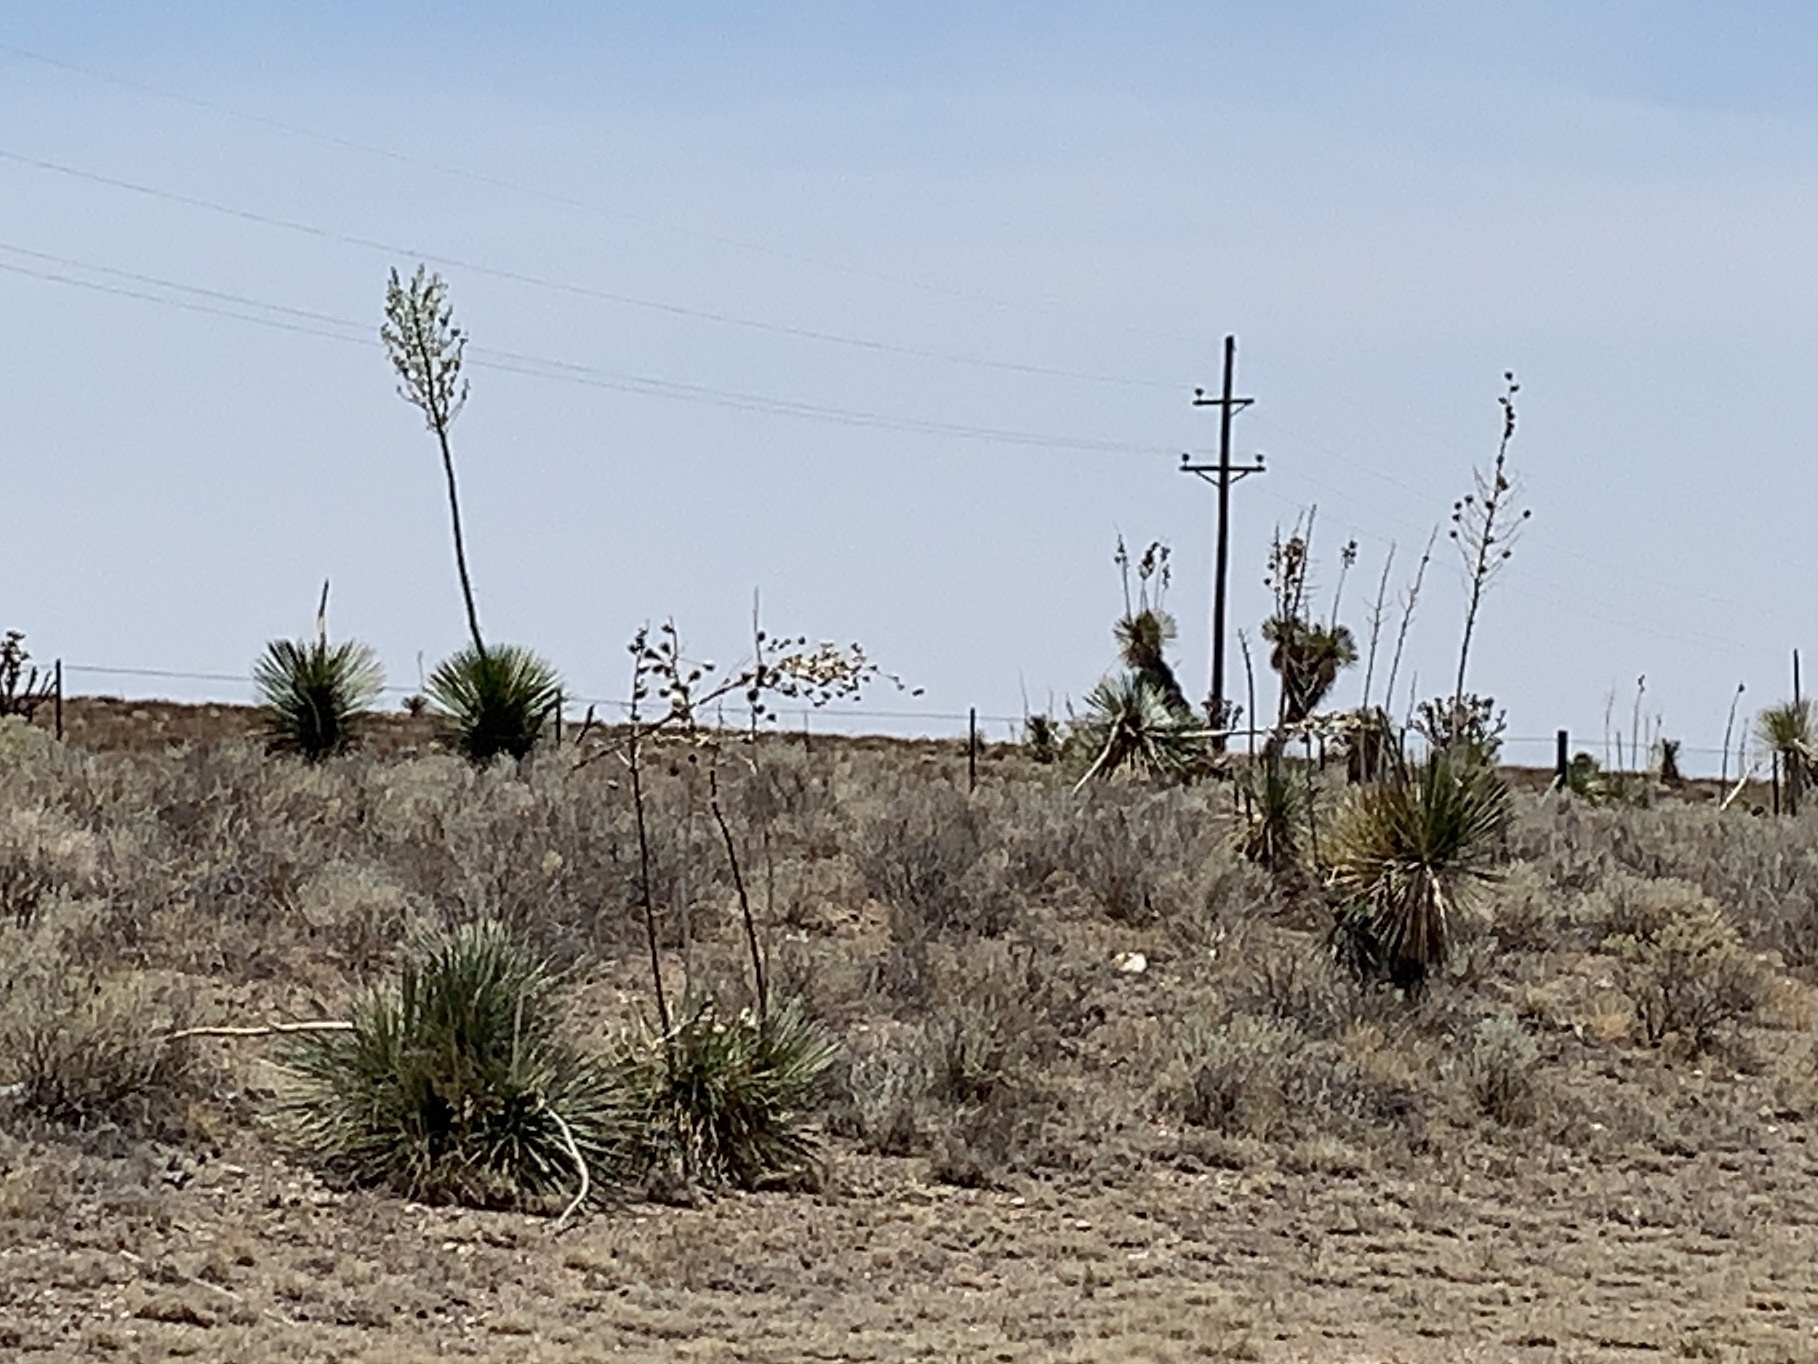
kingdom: Plantae
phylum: Tracheophyta
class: Liliopsida
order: Asparagales
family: Asparagaceae
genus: Yucca
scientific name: Yucca elata
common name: Palmella
